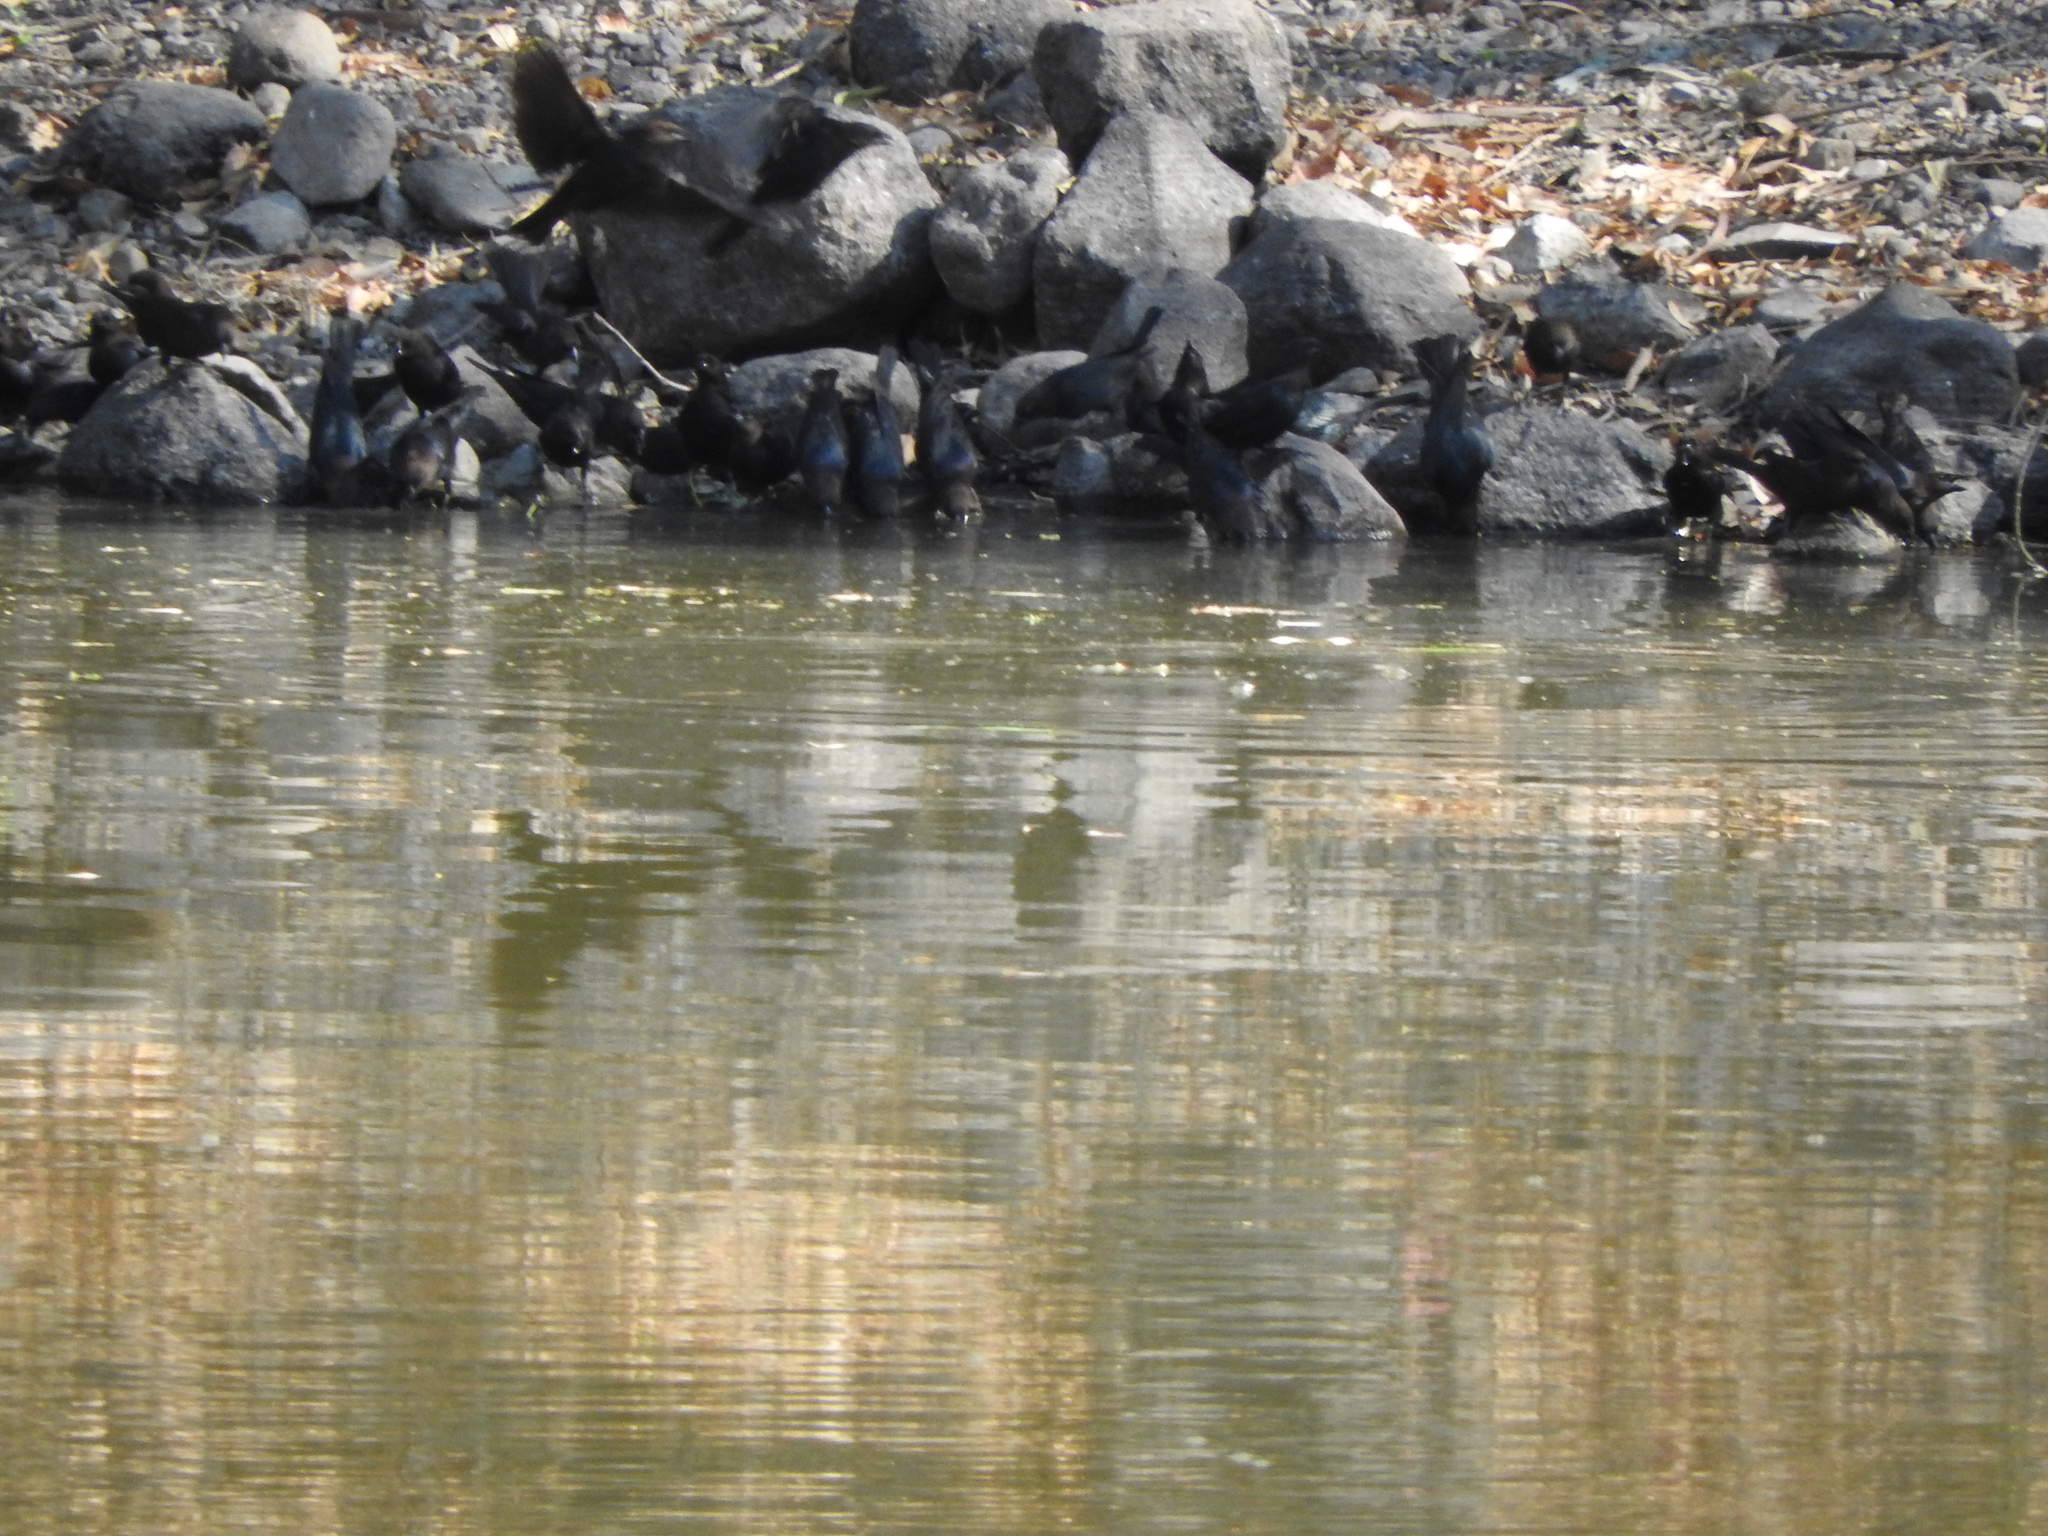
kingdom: Animalia
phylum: Chordata
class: Aves
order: Passeriformes
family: Icteridae
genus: Molothrus
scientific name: Molothrus ater
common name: Brown-headed cowbird
